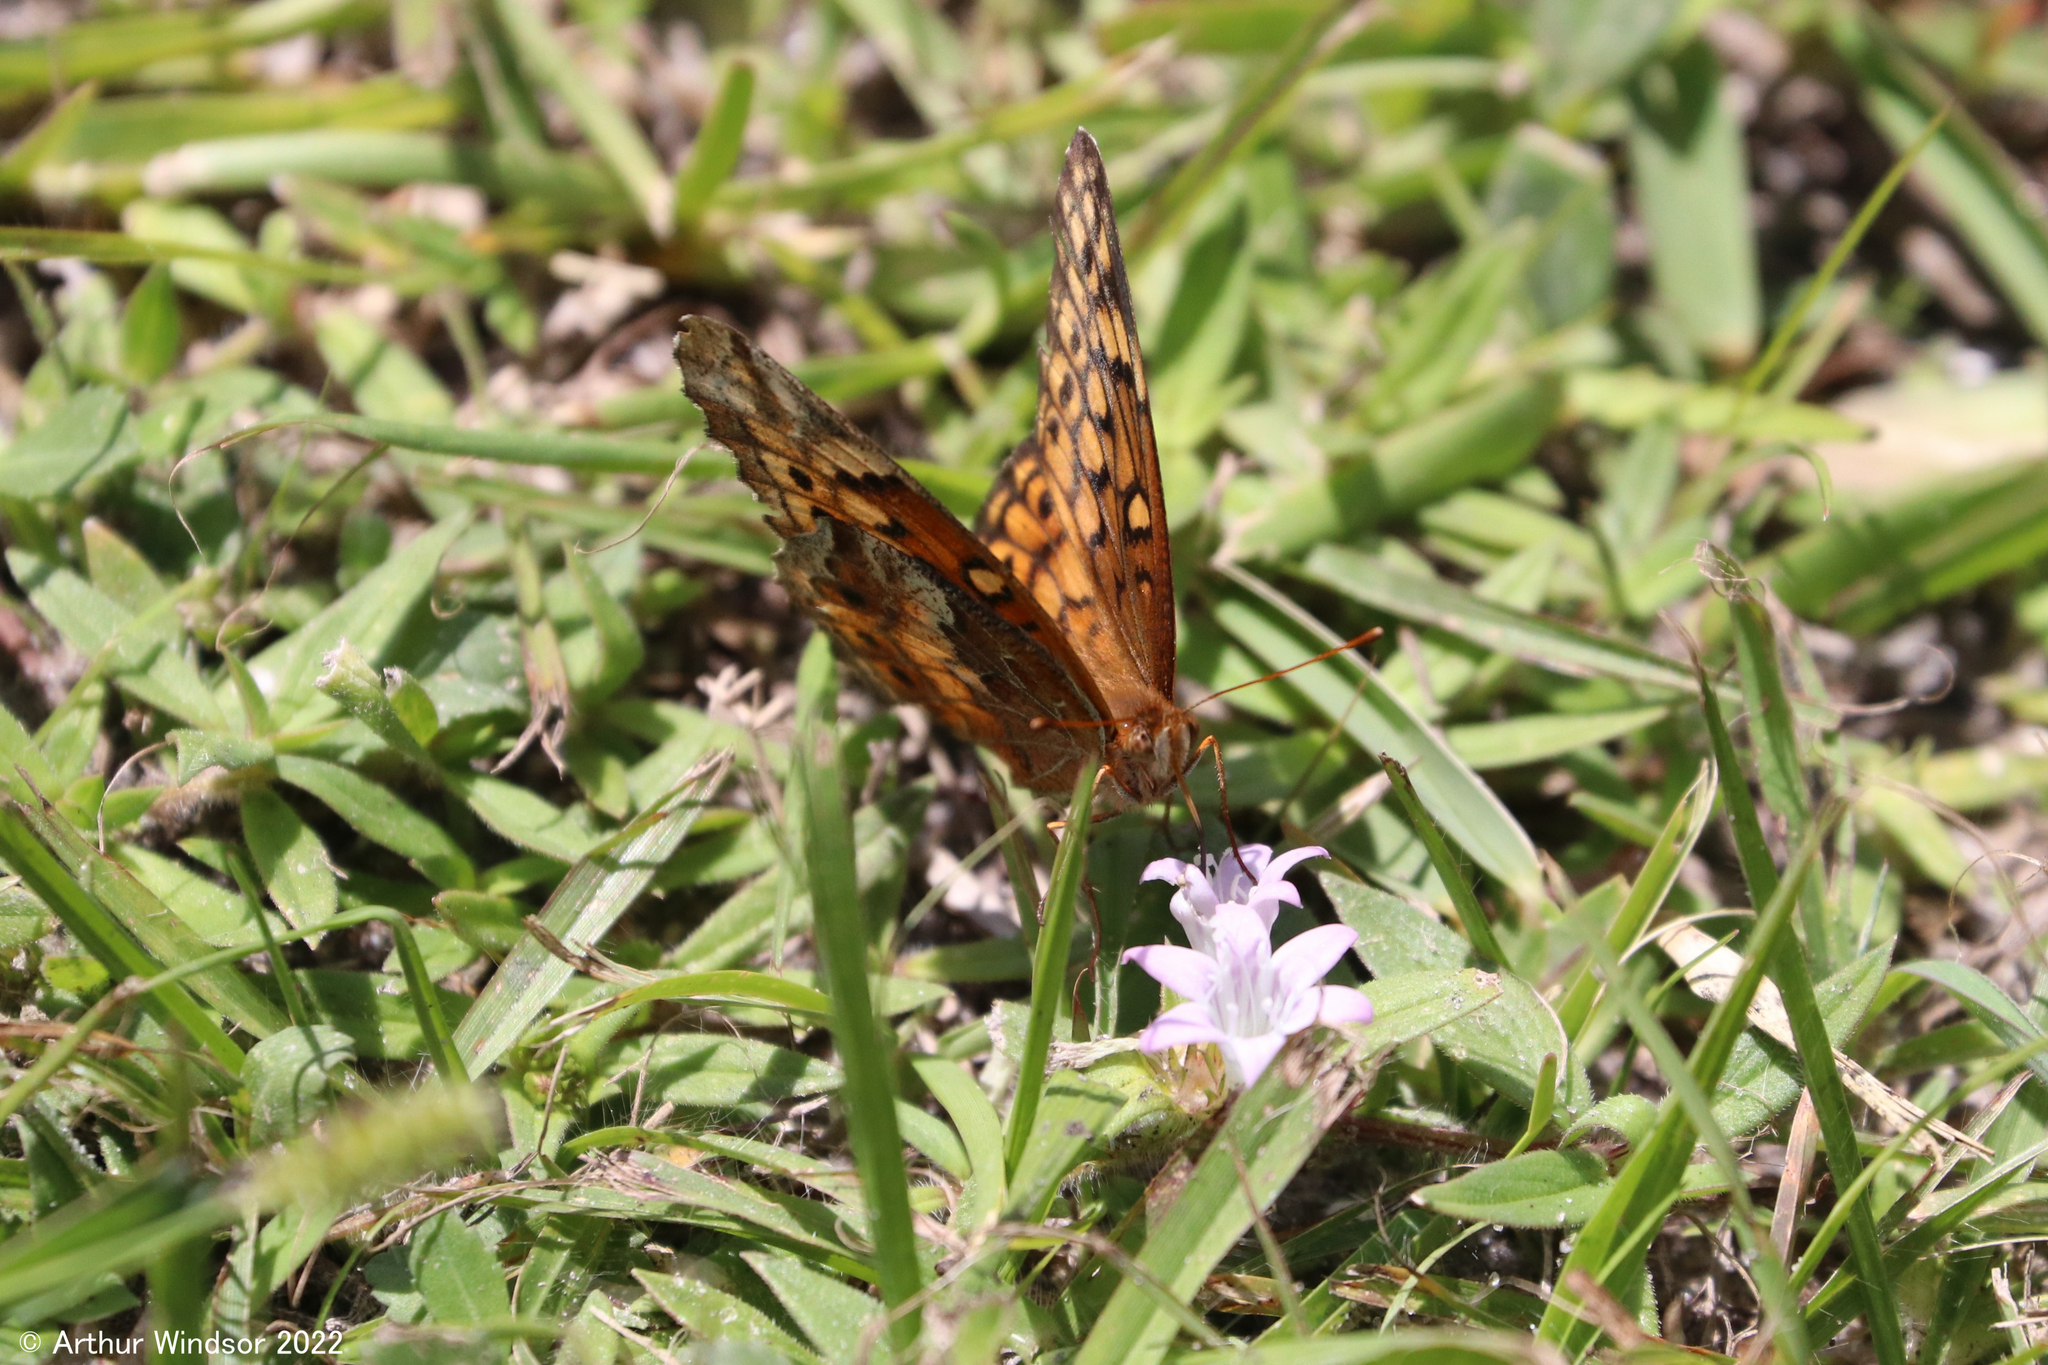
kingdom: Animalia
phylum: Arthropoda
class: Insecta
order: Lepidoptera
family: Nymphalidae
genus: Euptoieta
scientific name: Euptoieta claudia
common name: Variegated fritillary
